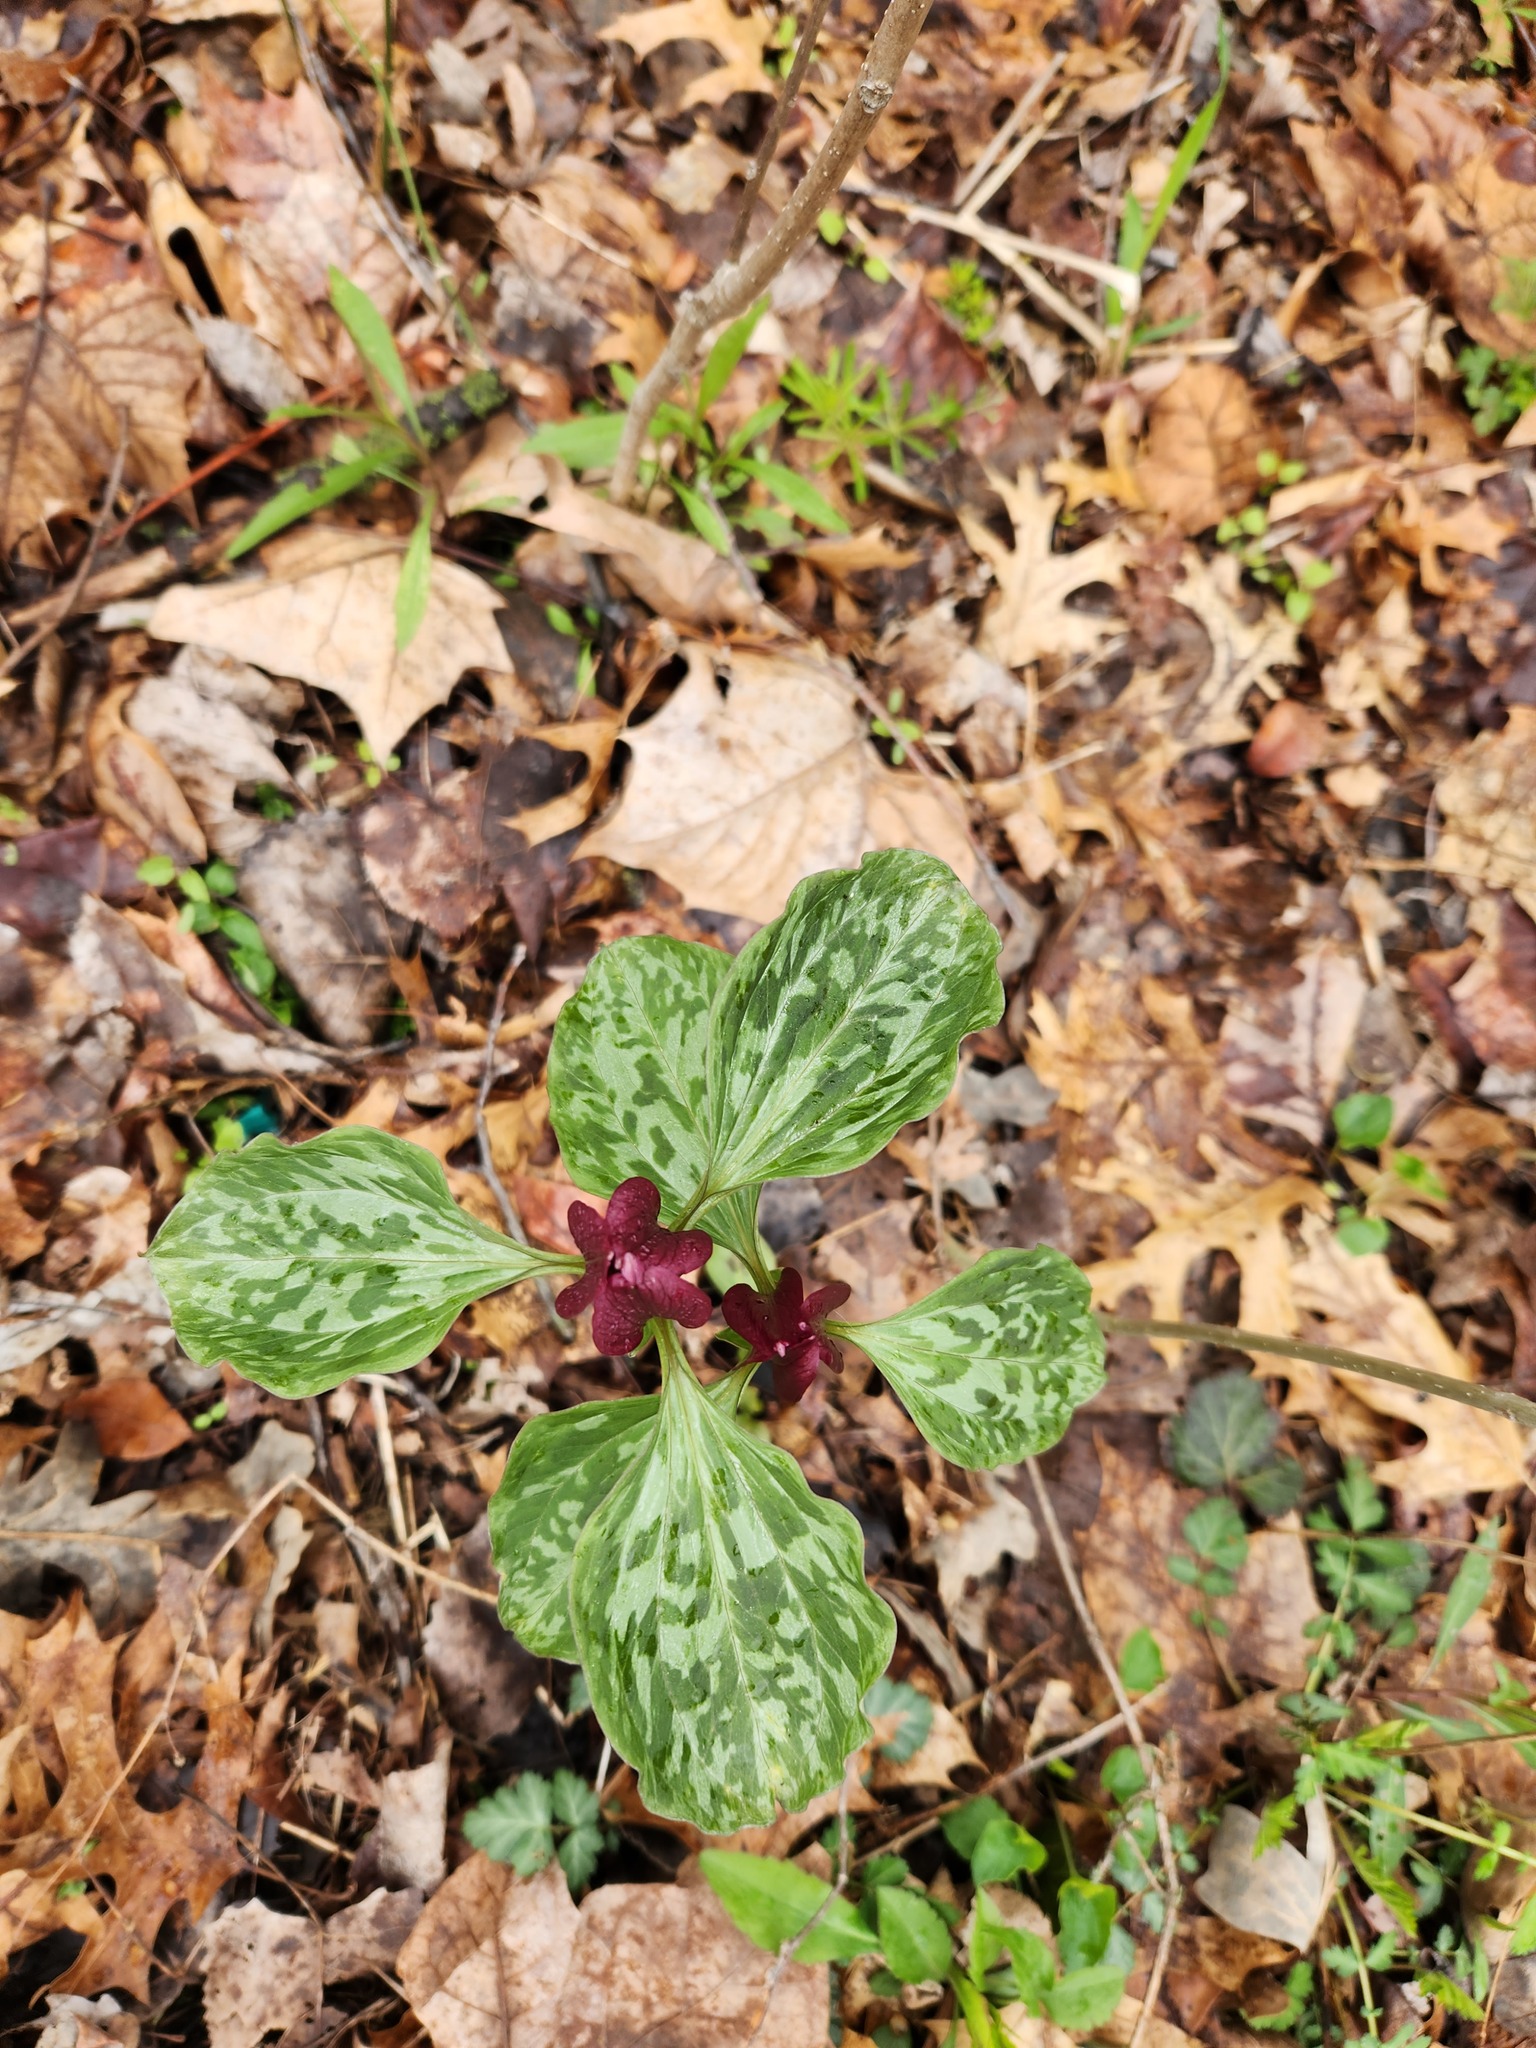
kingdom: Plantae
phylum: Tracheophyta
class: Liliopsida
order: Liliales
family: Melanthiaceae
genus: Trillium
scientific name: Trillium recurvatum
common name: Bloody butcher
